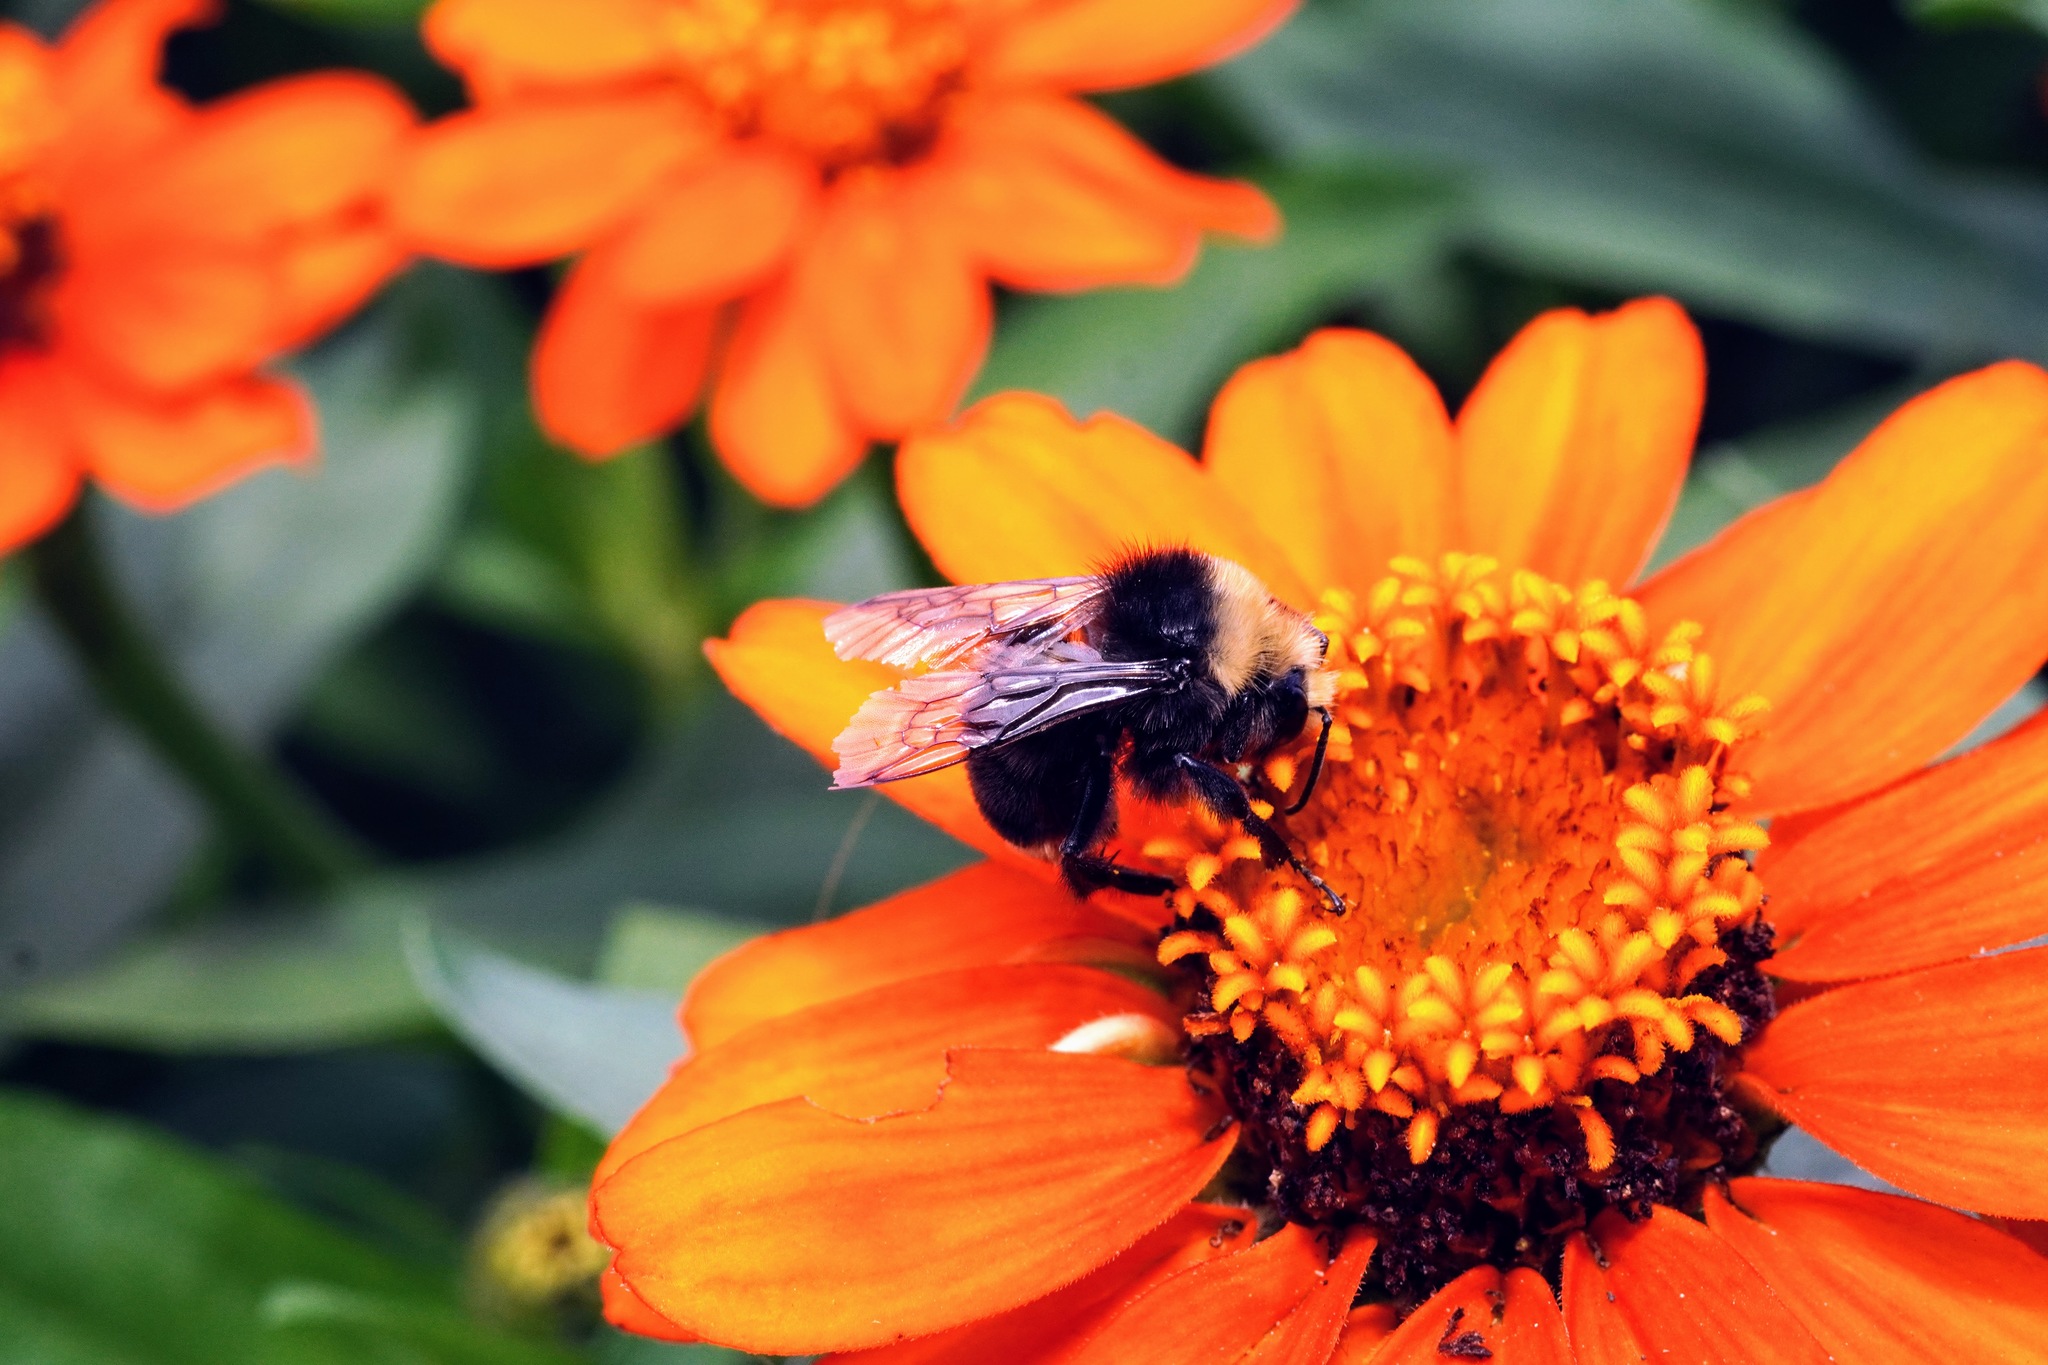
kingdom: Animalia
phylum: Arthropoda
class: Insecta
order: Hymenoptera
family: Apidae
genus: Bombus
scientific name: Bombus vosnesenskii
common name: Vosnesensky bumble bee
